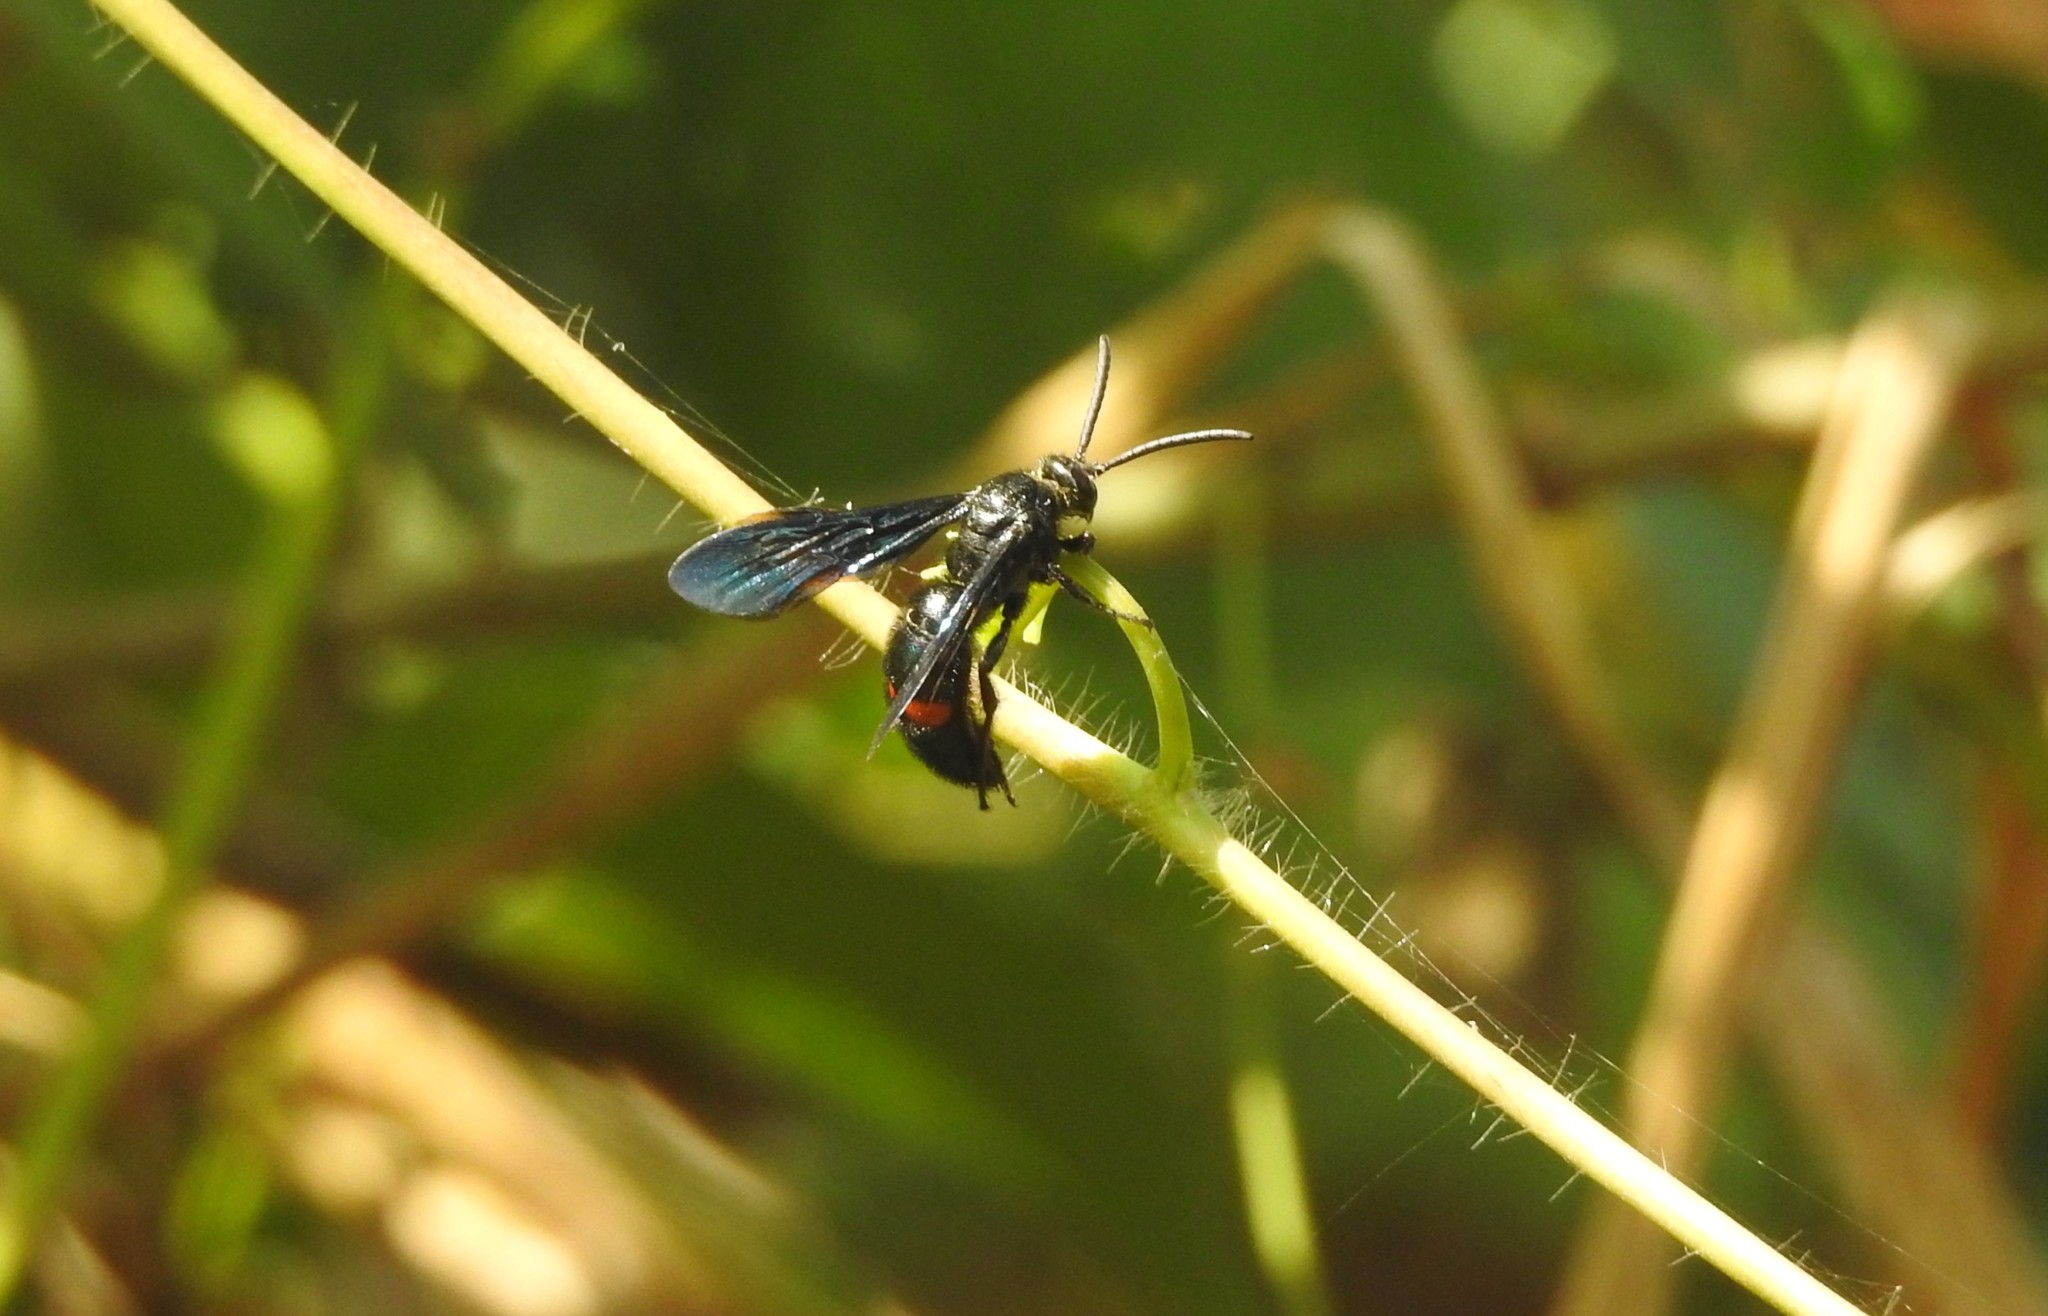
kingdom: Animalia
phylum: Arthropoda
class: Insecta
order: Hymenoptera
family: Scoliidae
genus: Scolia
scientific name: Scolia
